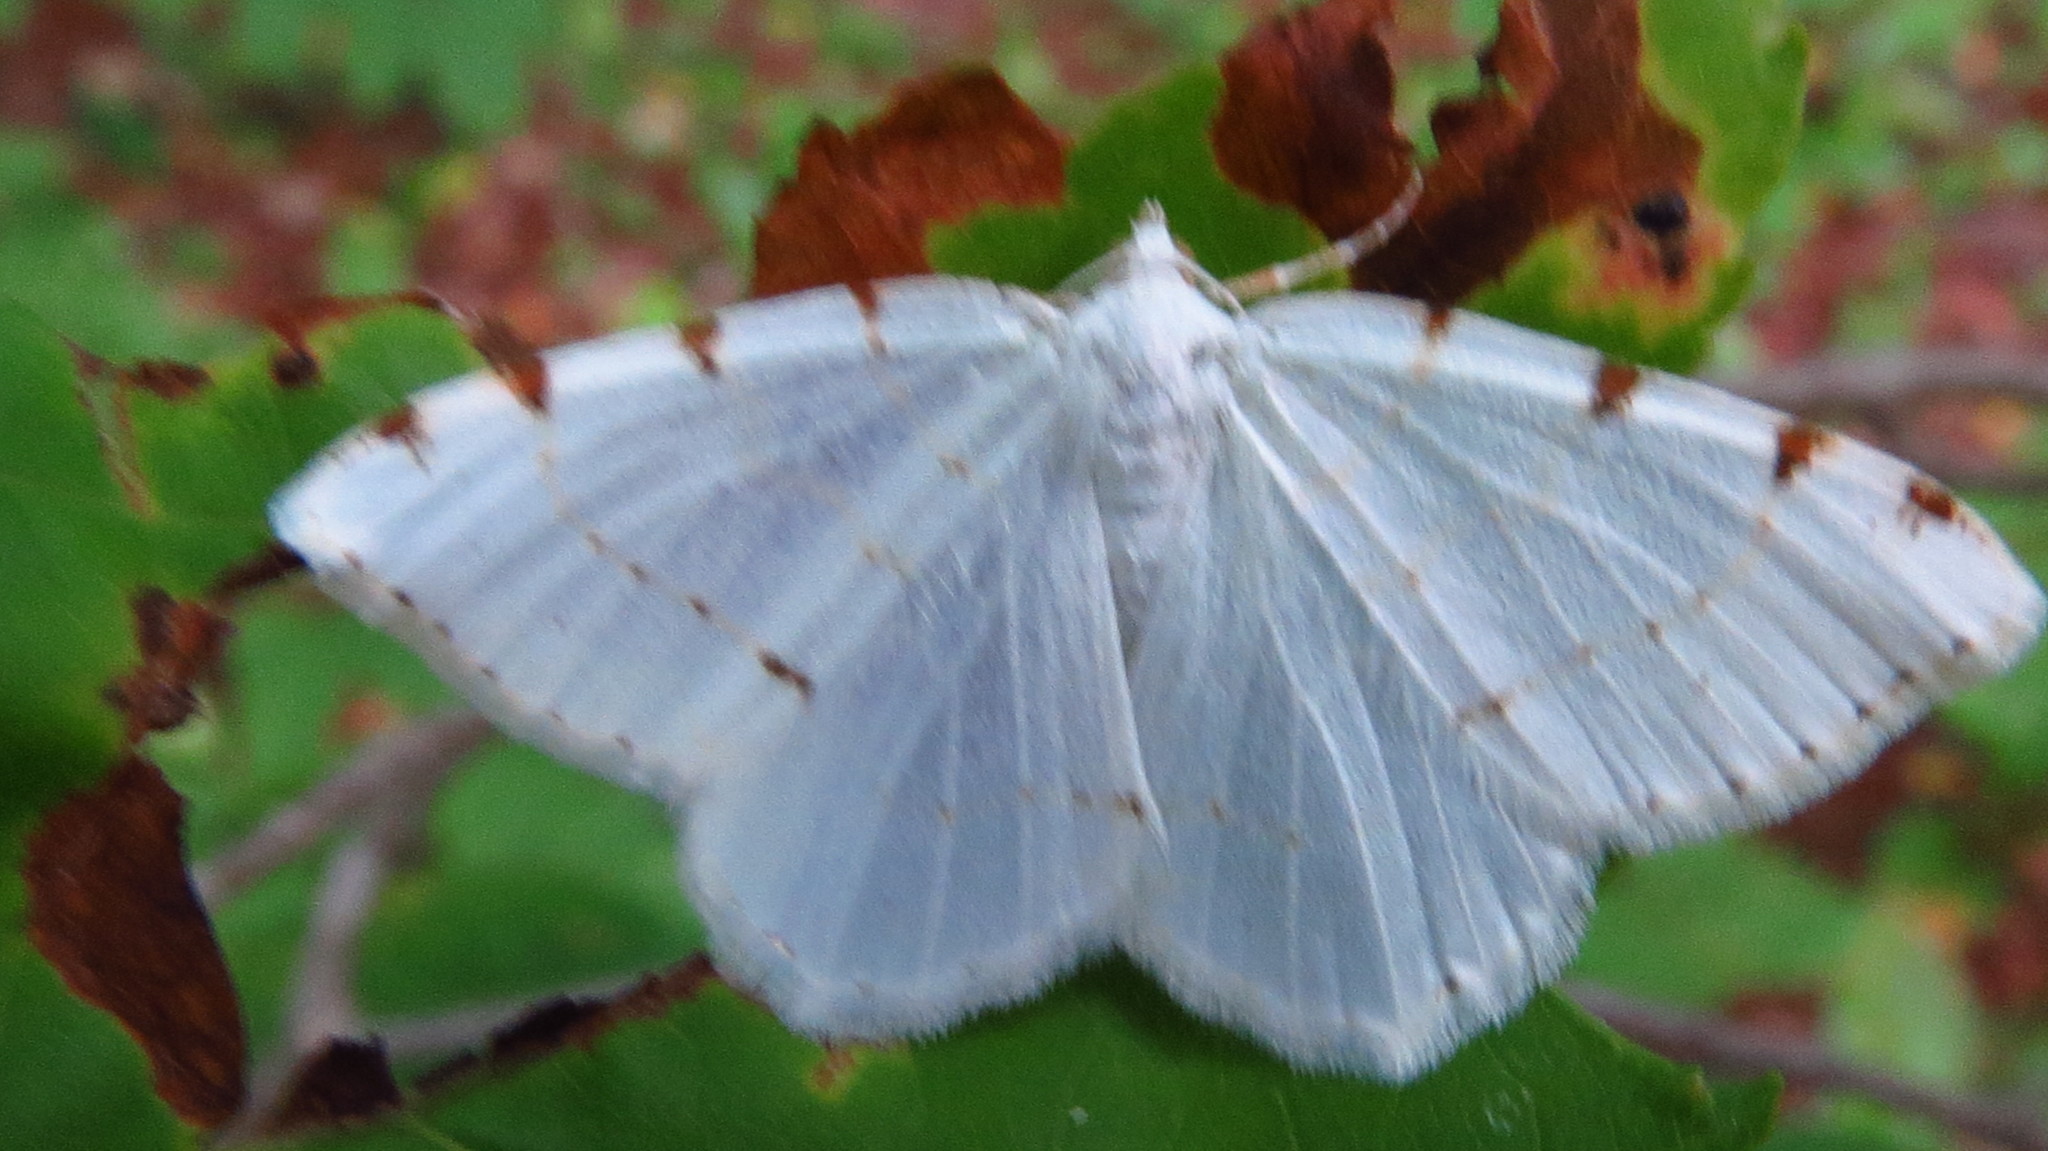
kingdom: Animalia
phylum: Arthropoda
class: Insecta
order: Lepidoptera
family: Geometridae
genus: Macaria
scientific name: Macaria pustularia
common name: Lesser maple spanworm moth
